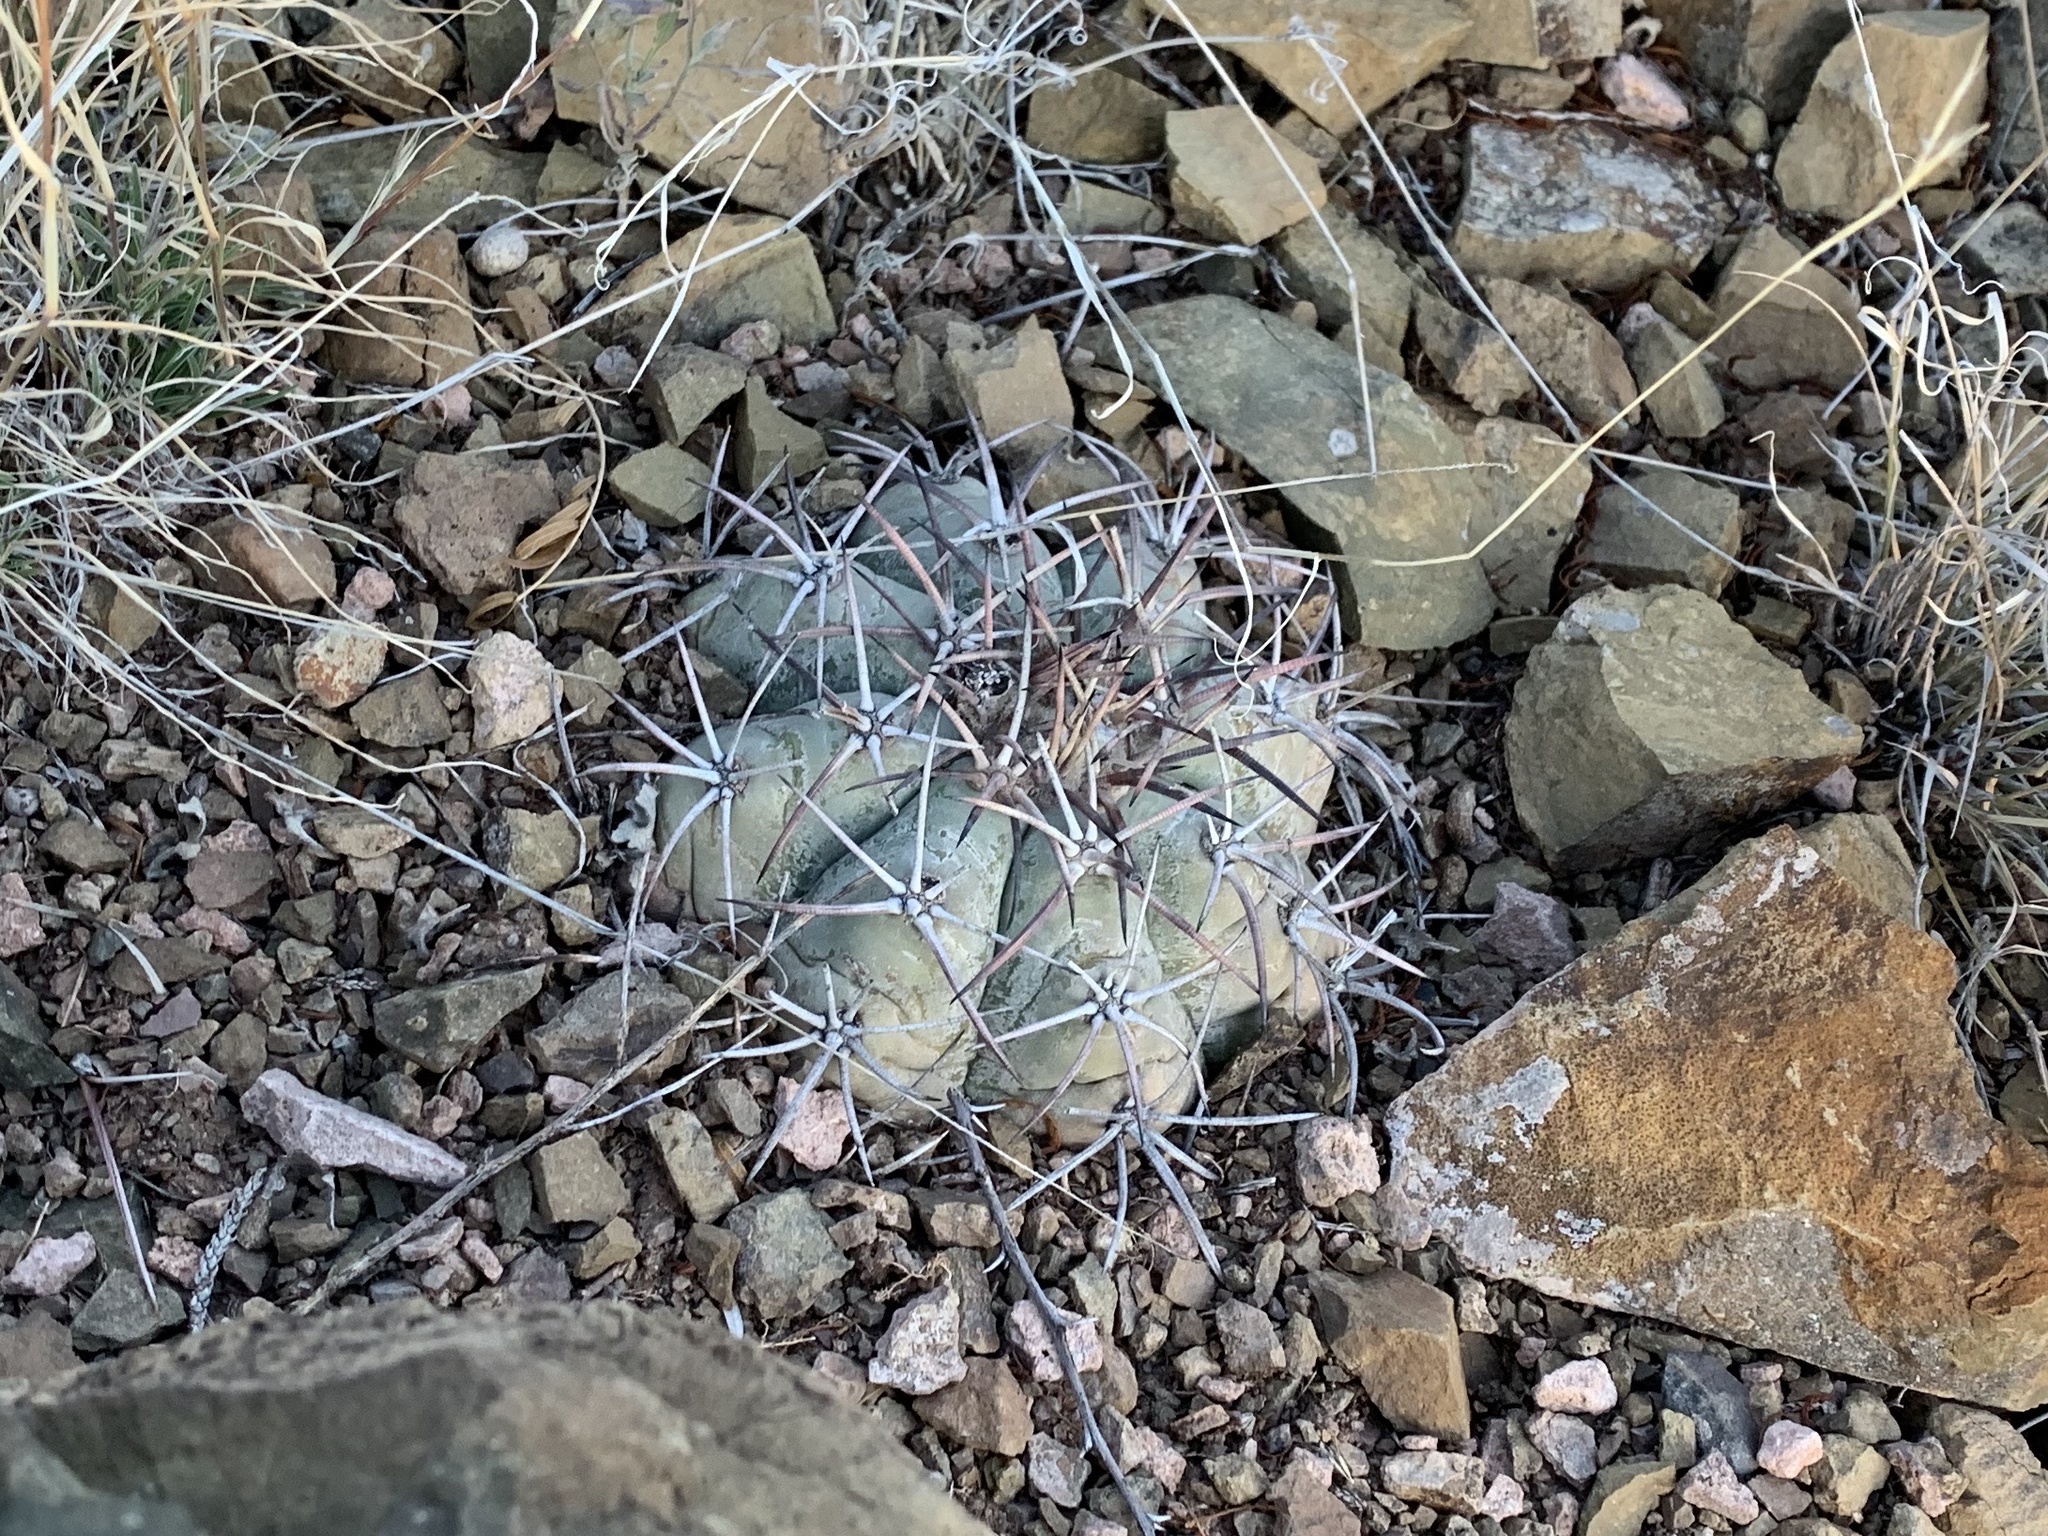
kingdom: Plantae
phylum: Tracheophyta
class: Magnoliopsida
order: Caryophyllales
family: Cactaceae
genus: Echinocactus
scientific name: Echinocactus horizonthalonius
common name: Devilshead
